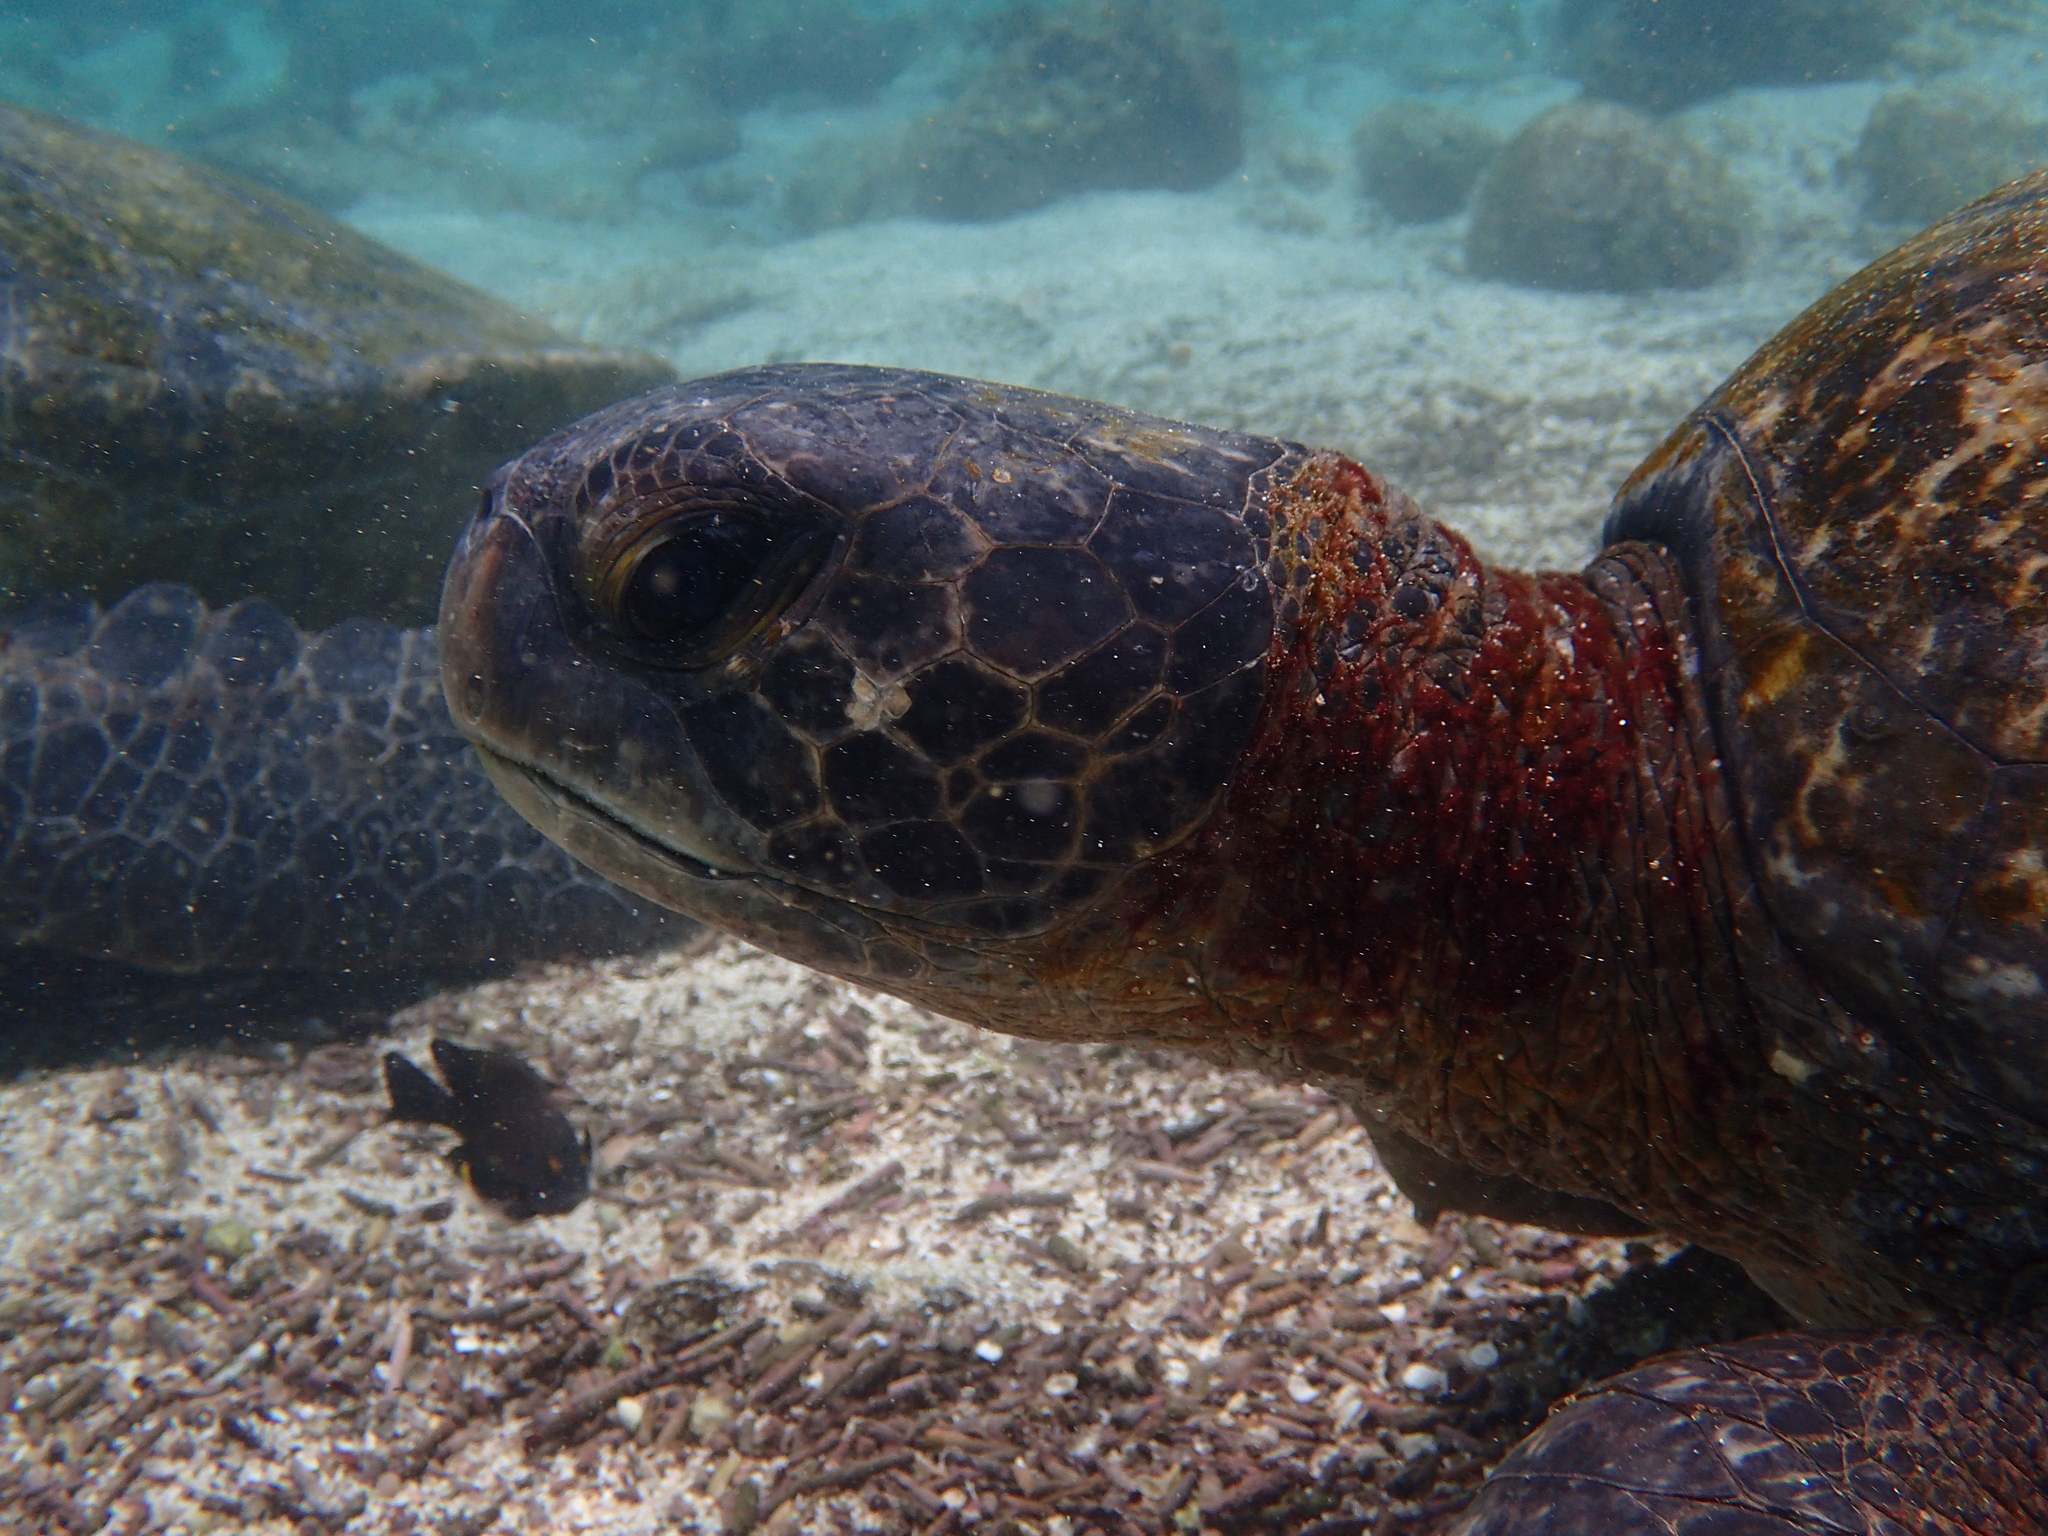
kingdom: Animalia
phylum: Chordata
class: Testudines
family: Cheloniidae
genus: Chelonia
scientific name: Chelonia mydas
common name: Green turtle
